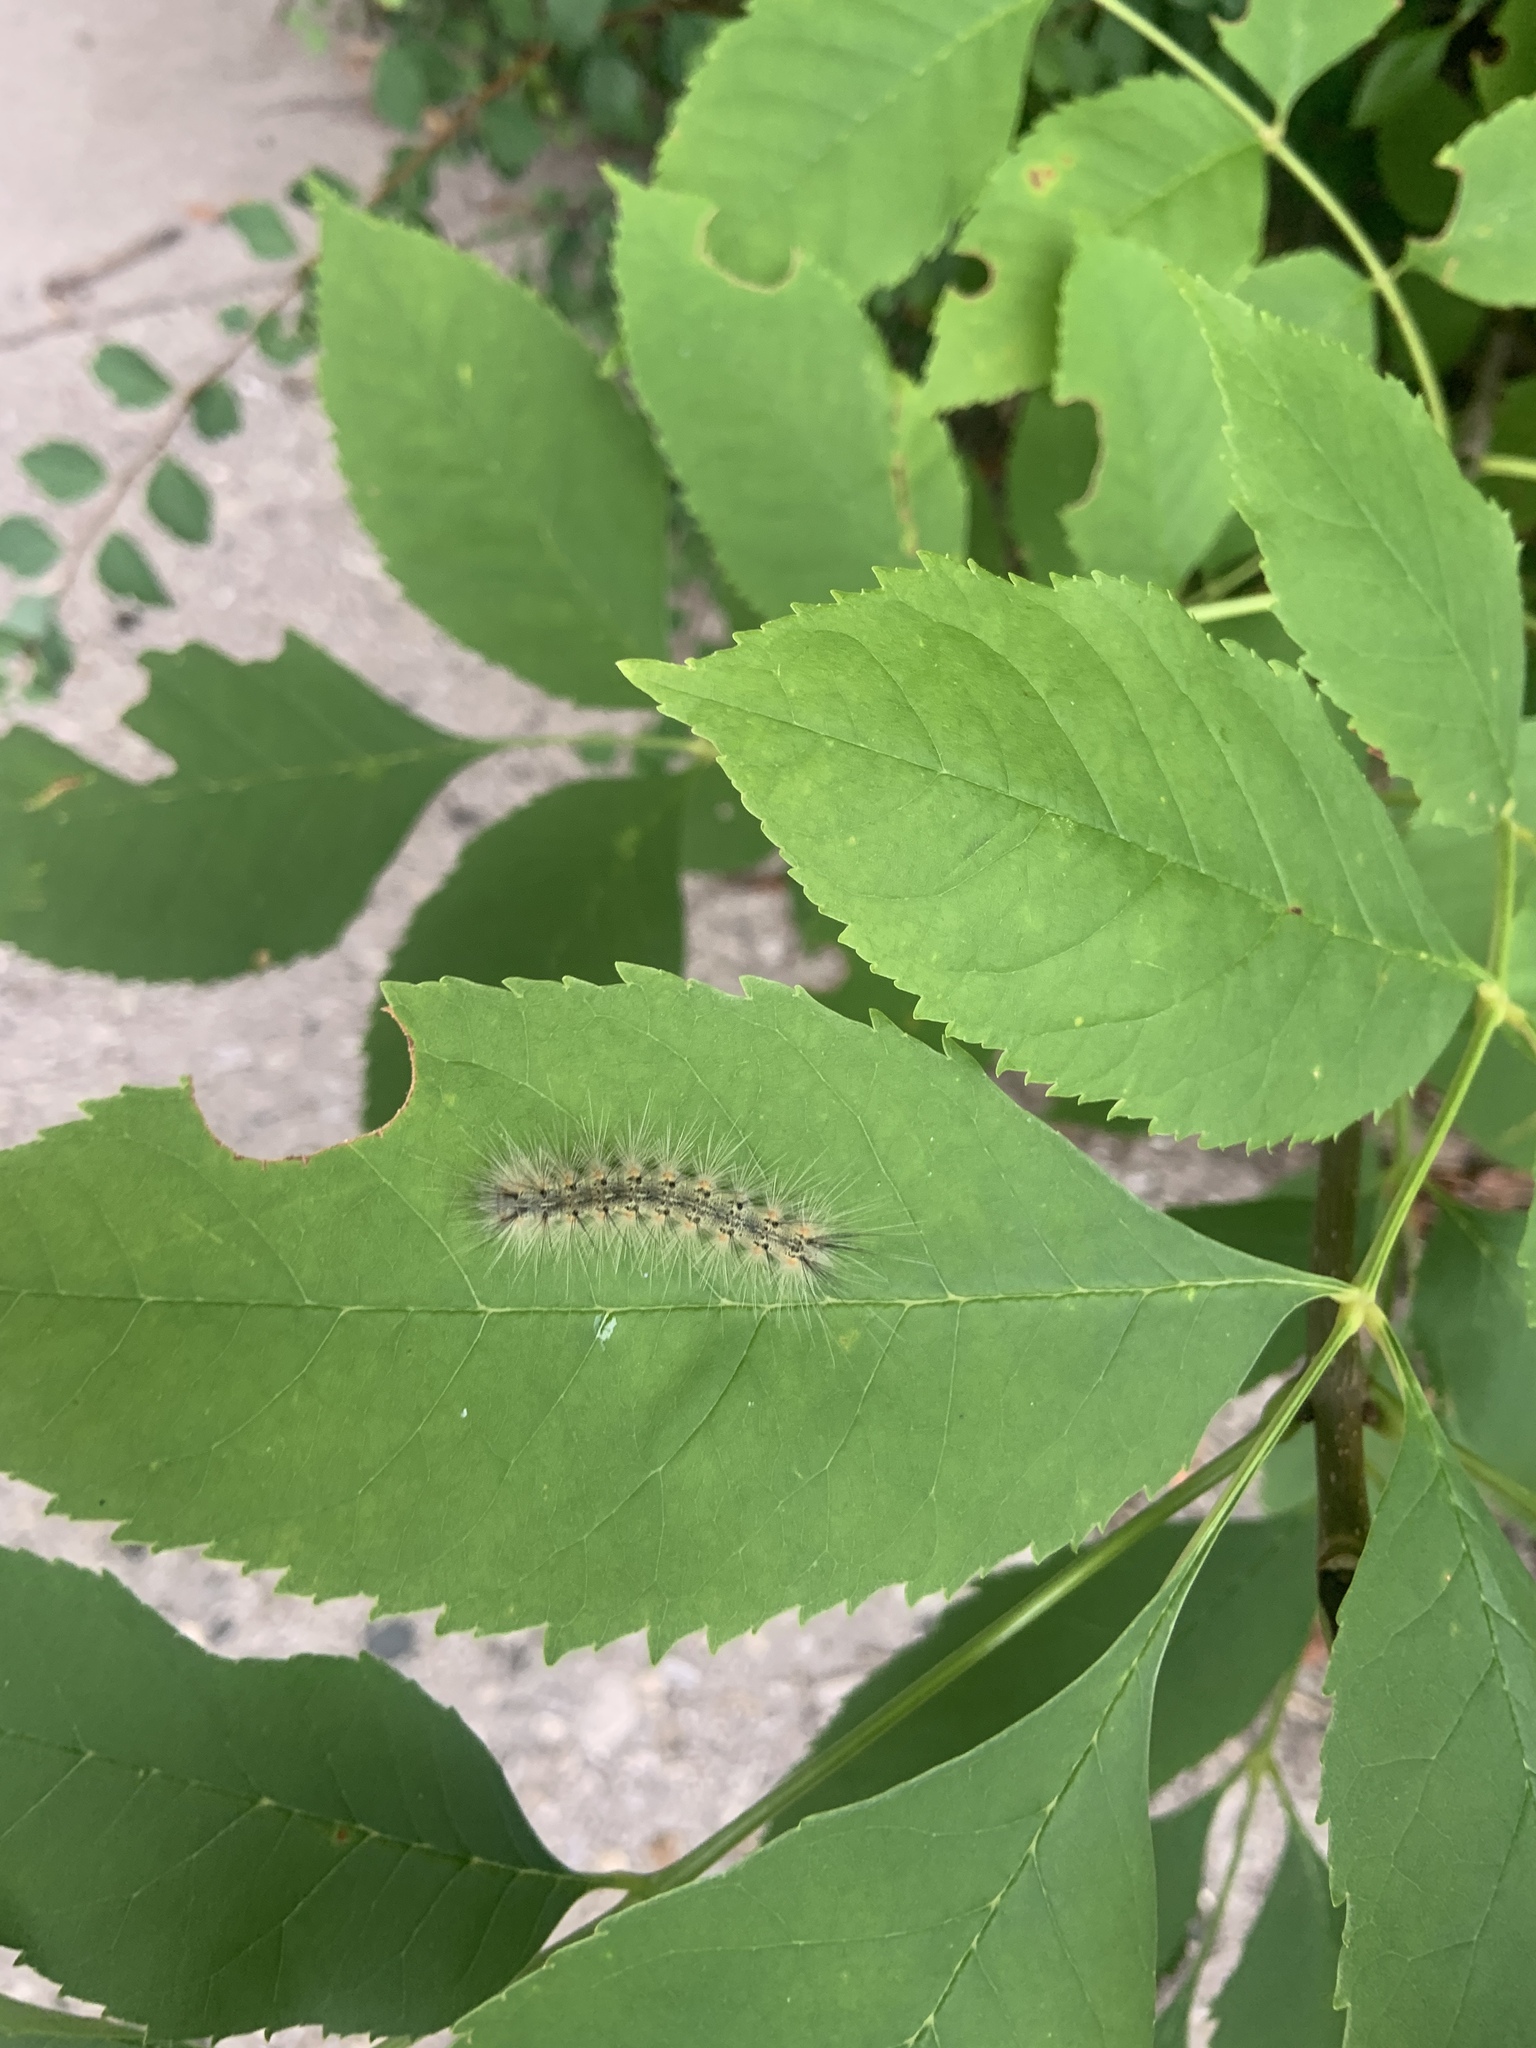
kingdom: Animalia
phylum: Arthropoda
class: Insecta
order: Lepidoptera
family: Erebidae
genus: Hyphantria
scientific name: Hyphantria cunea
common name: American white moth
